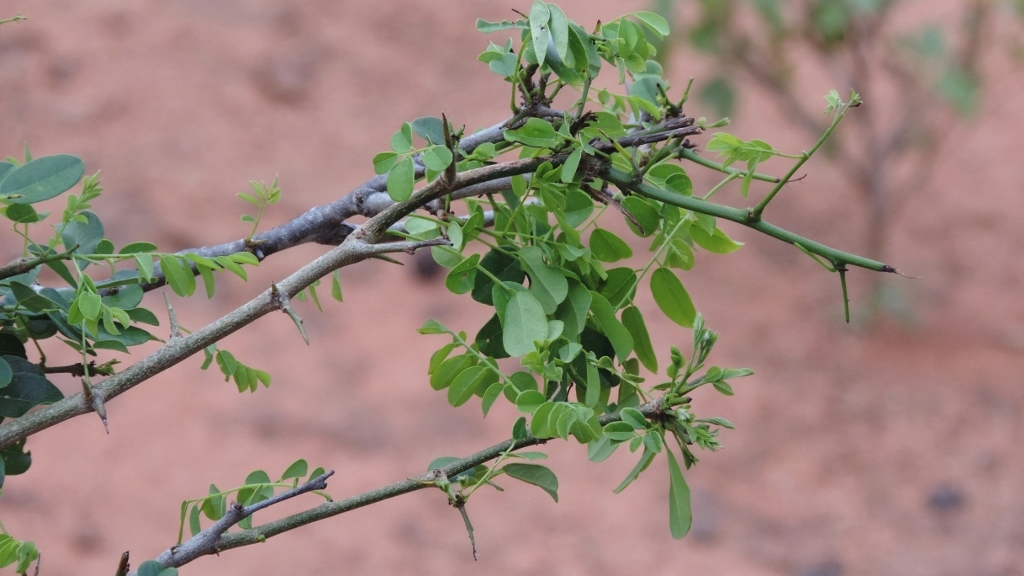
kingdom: Plantae
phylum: Tracheophyta
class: Magnoliopsida
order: Fabales
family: Fabaceae
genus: Dalbergia
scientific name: Dalbergia melanoxylon
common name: African blackwood
